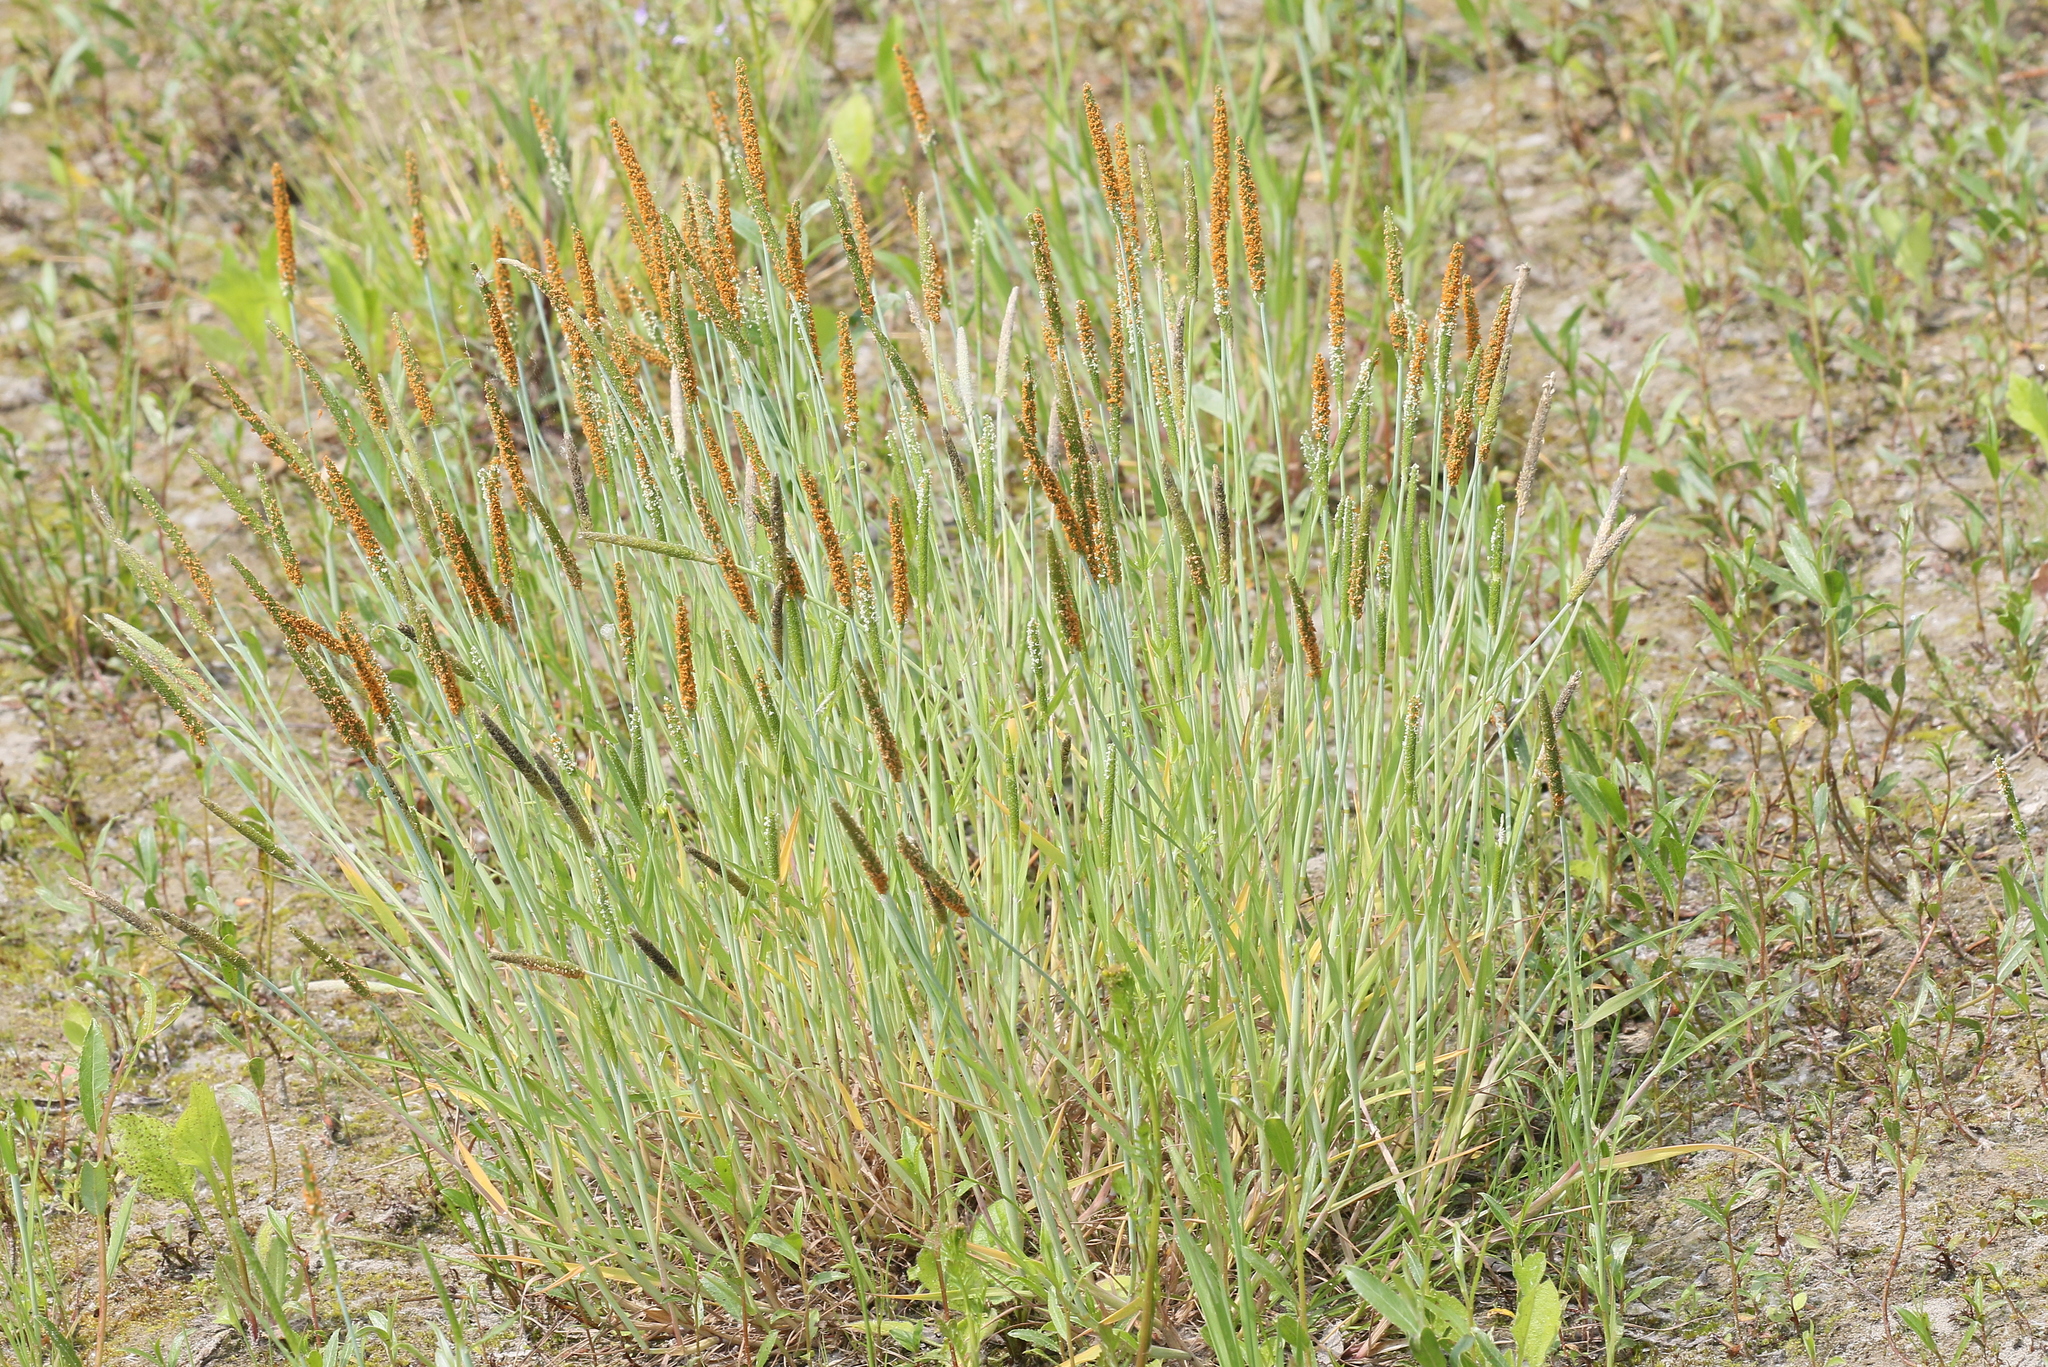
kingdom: Plantae
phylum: Tracheophyta
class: Liliopsida
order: Poales
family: Poaceae
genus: Alopecurus
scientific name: Alopecurus aequalis
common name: Orange foxtail
